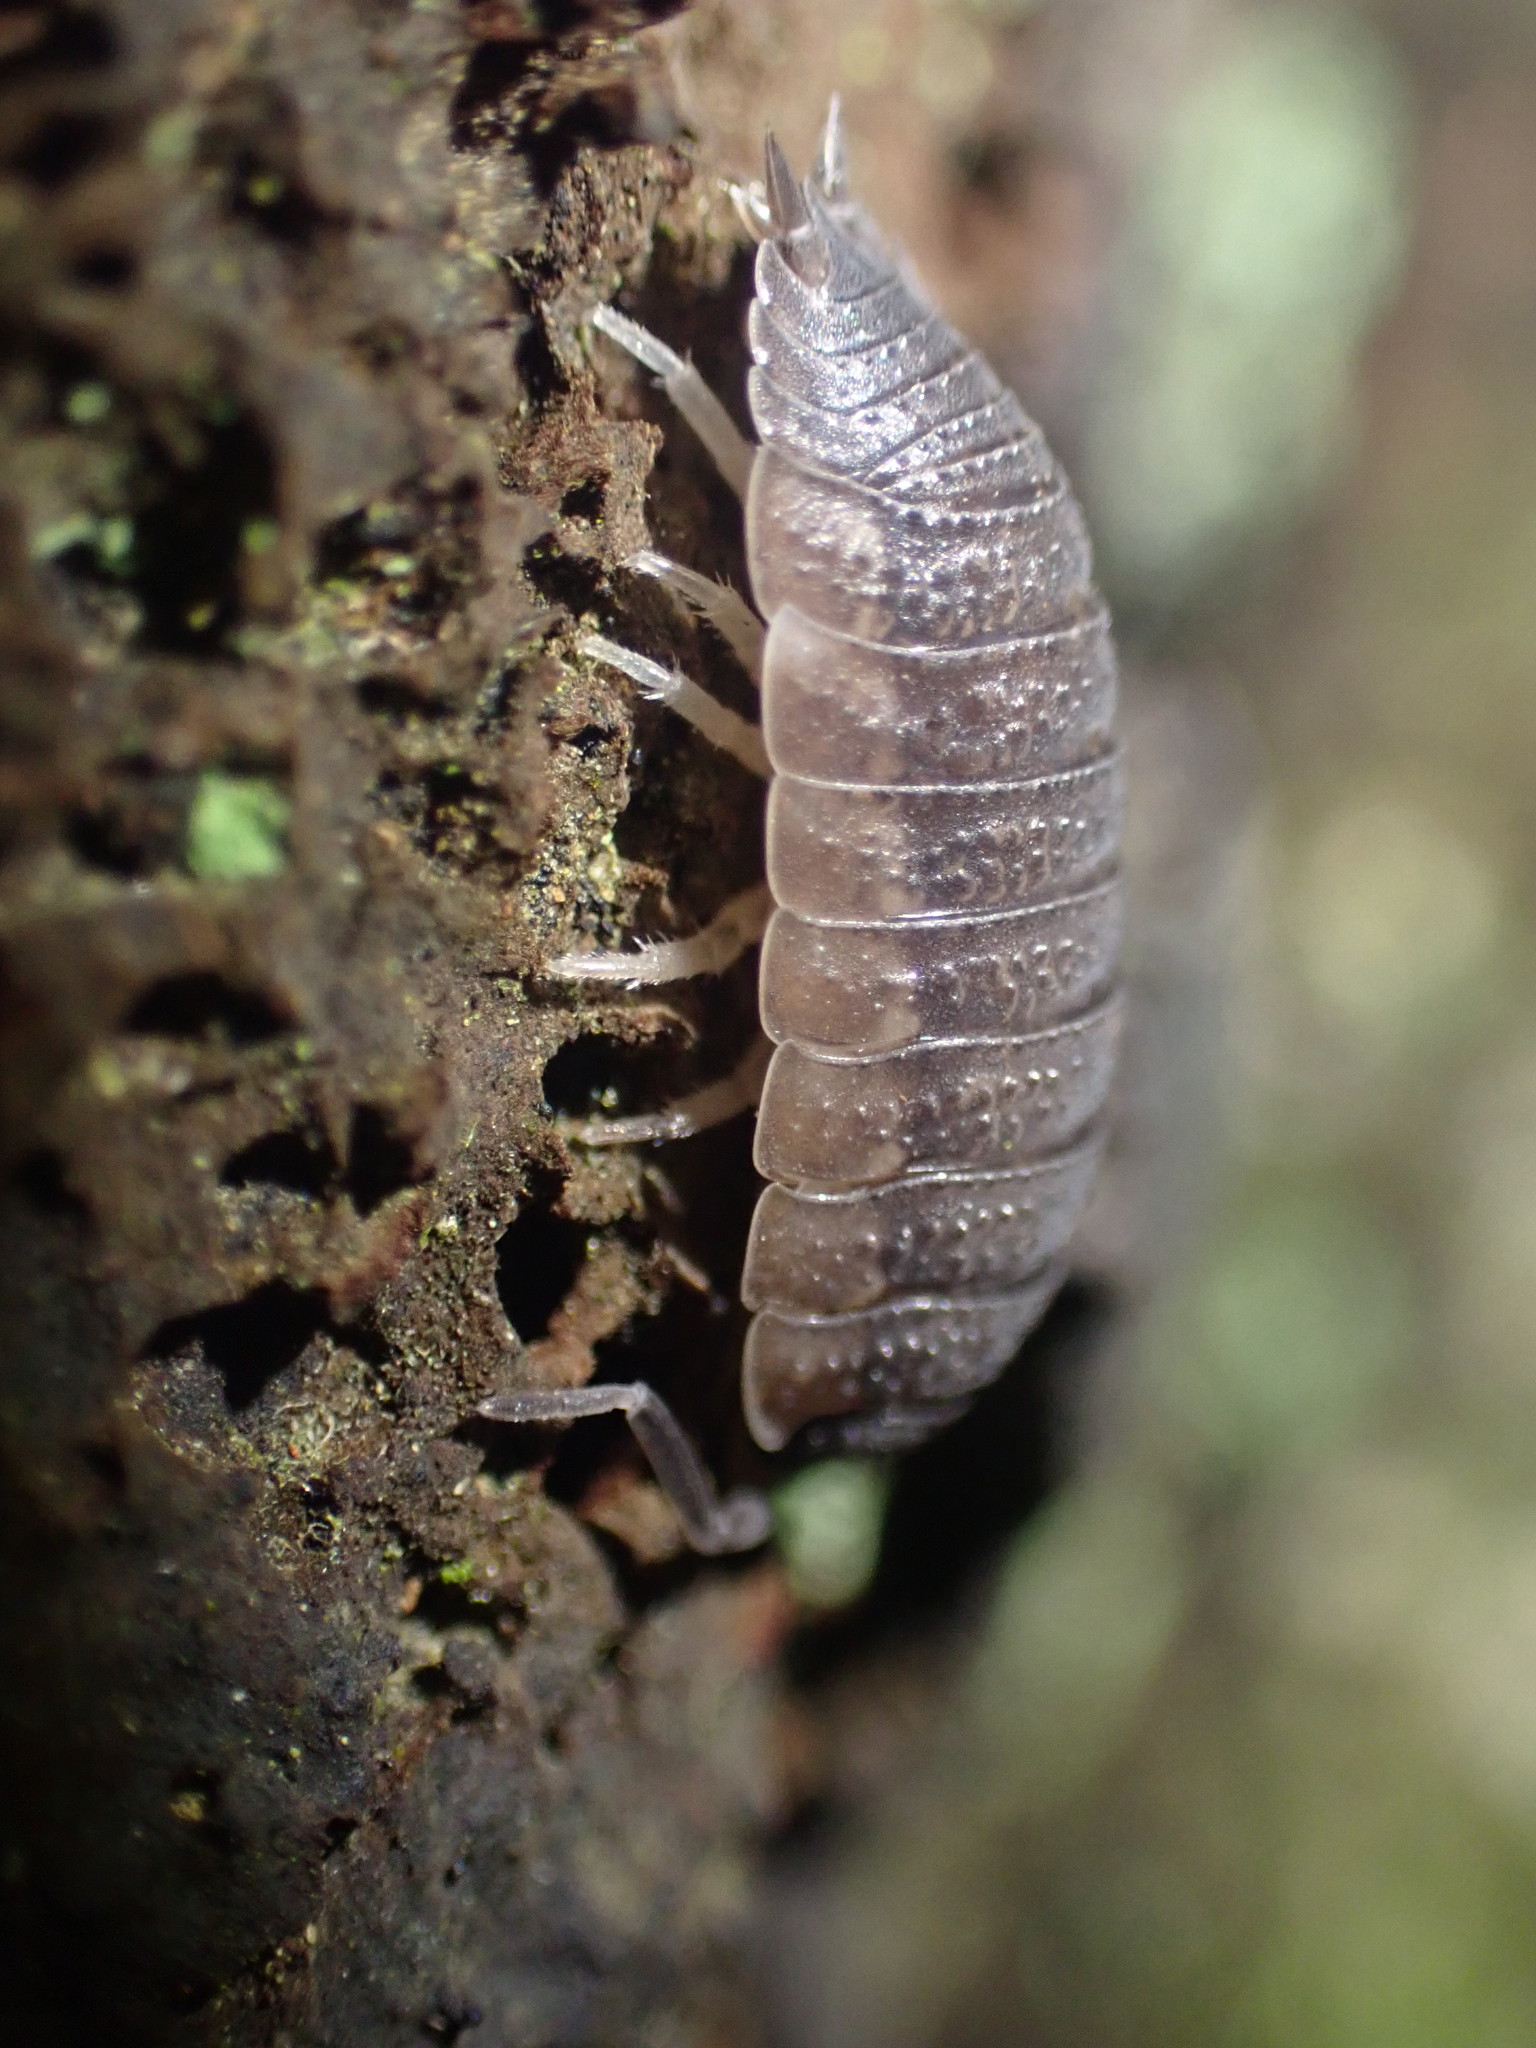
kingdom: Animalia
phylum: Arthropoda
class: Malacostraca
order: Isopoda
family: Porcellionidae
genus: Porcellio
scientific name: Porcellio scaber
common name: Common rough woodlouse
